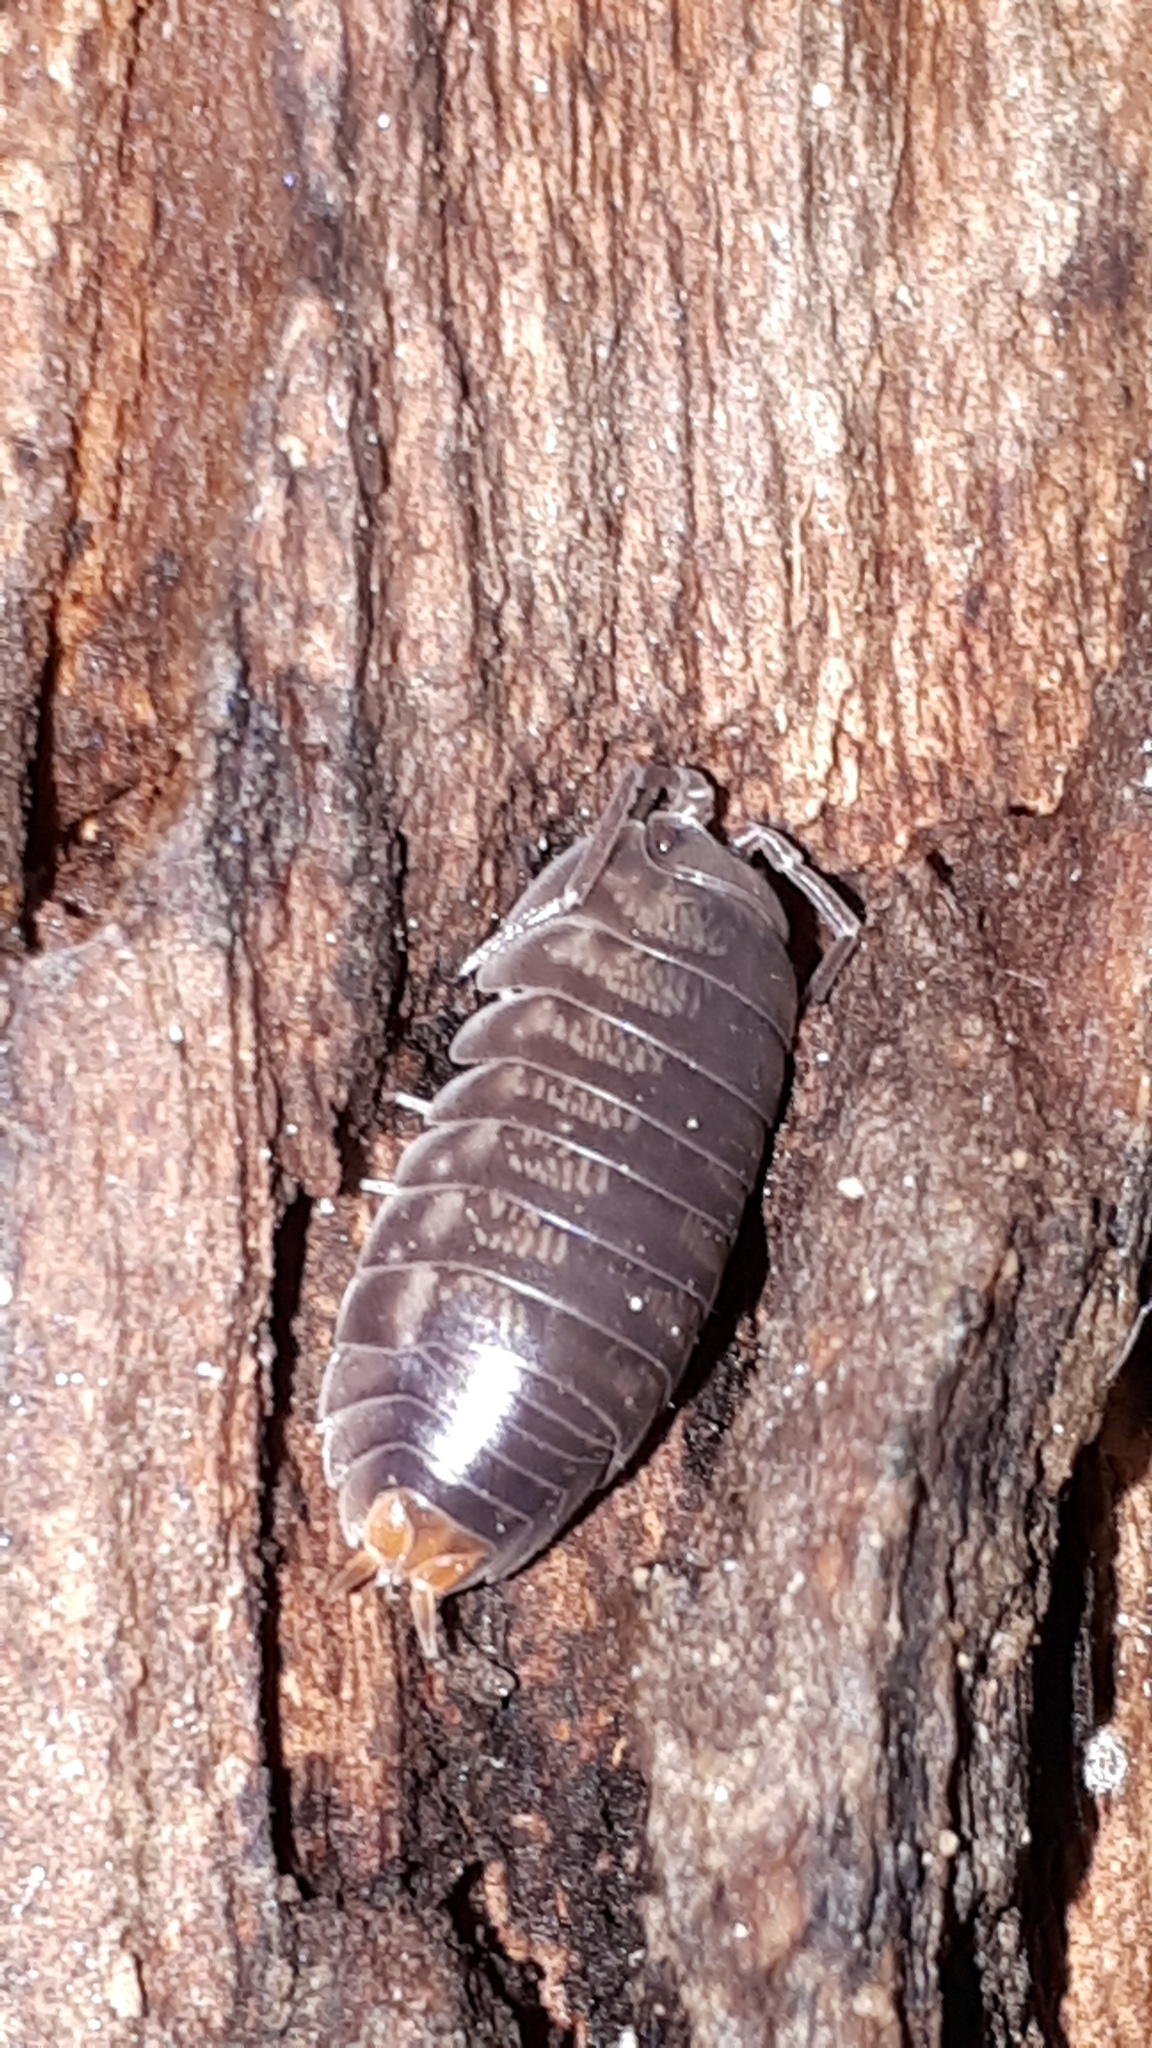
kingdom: Animalia
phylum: Arthropoda
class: Malacostraca
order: Isopoda
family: Cylisticidae
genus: Cylisticus
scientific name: Cylisticus convexus
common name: Curly woodlouse
